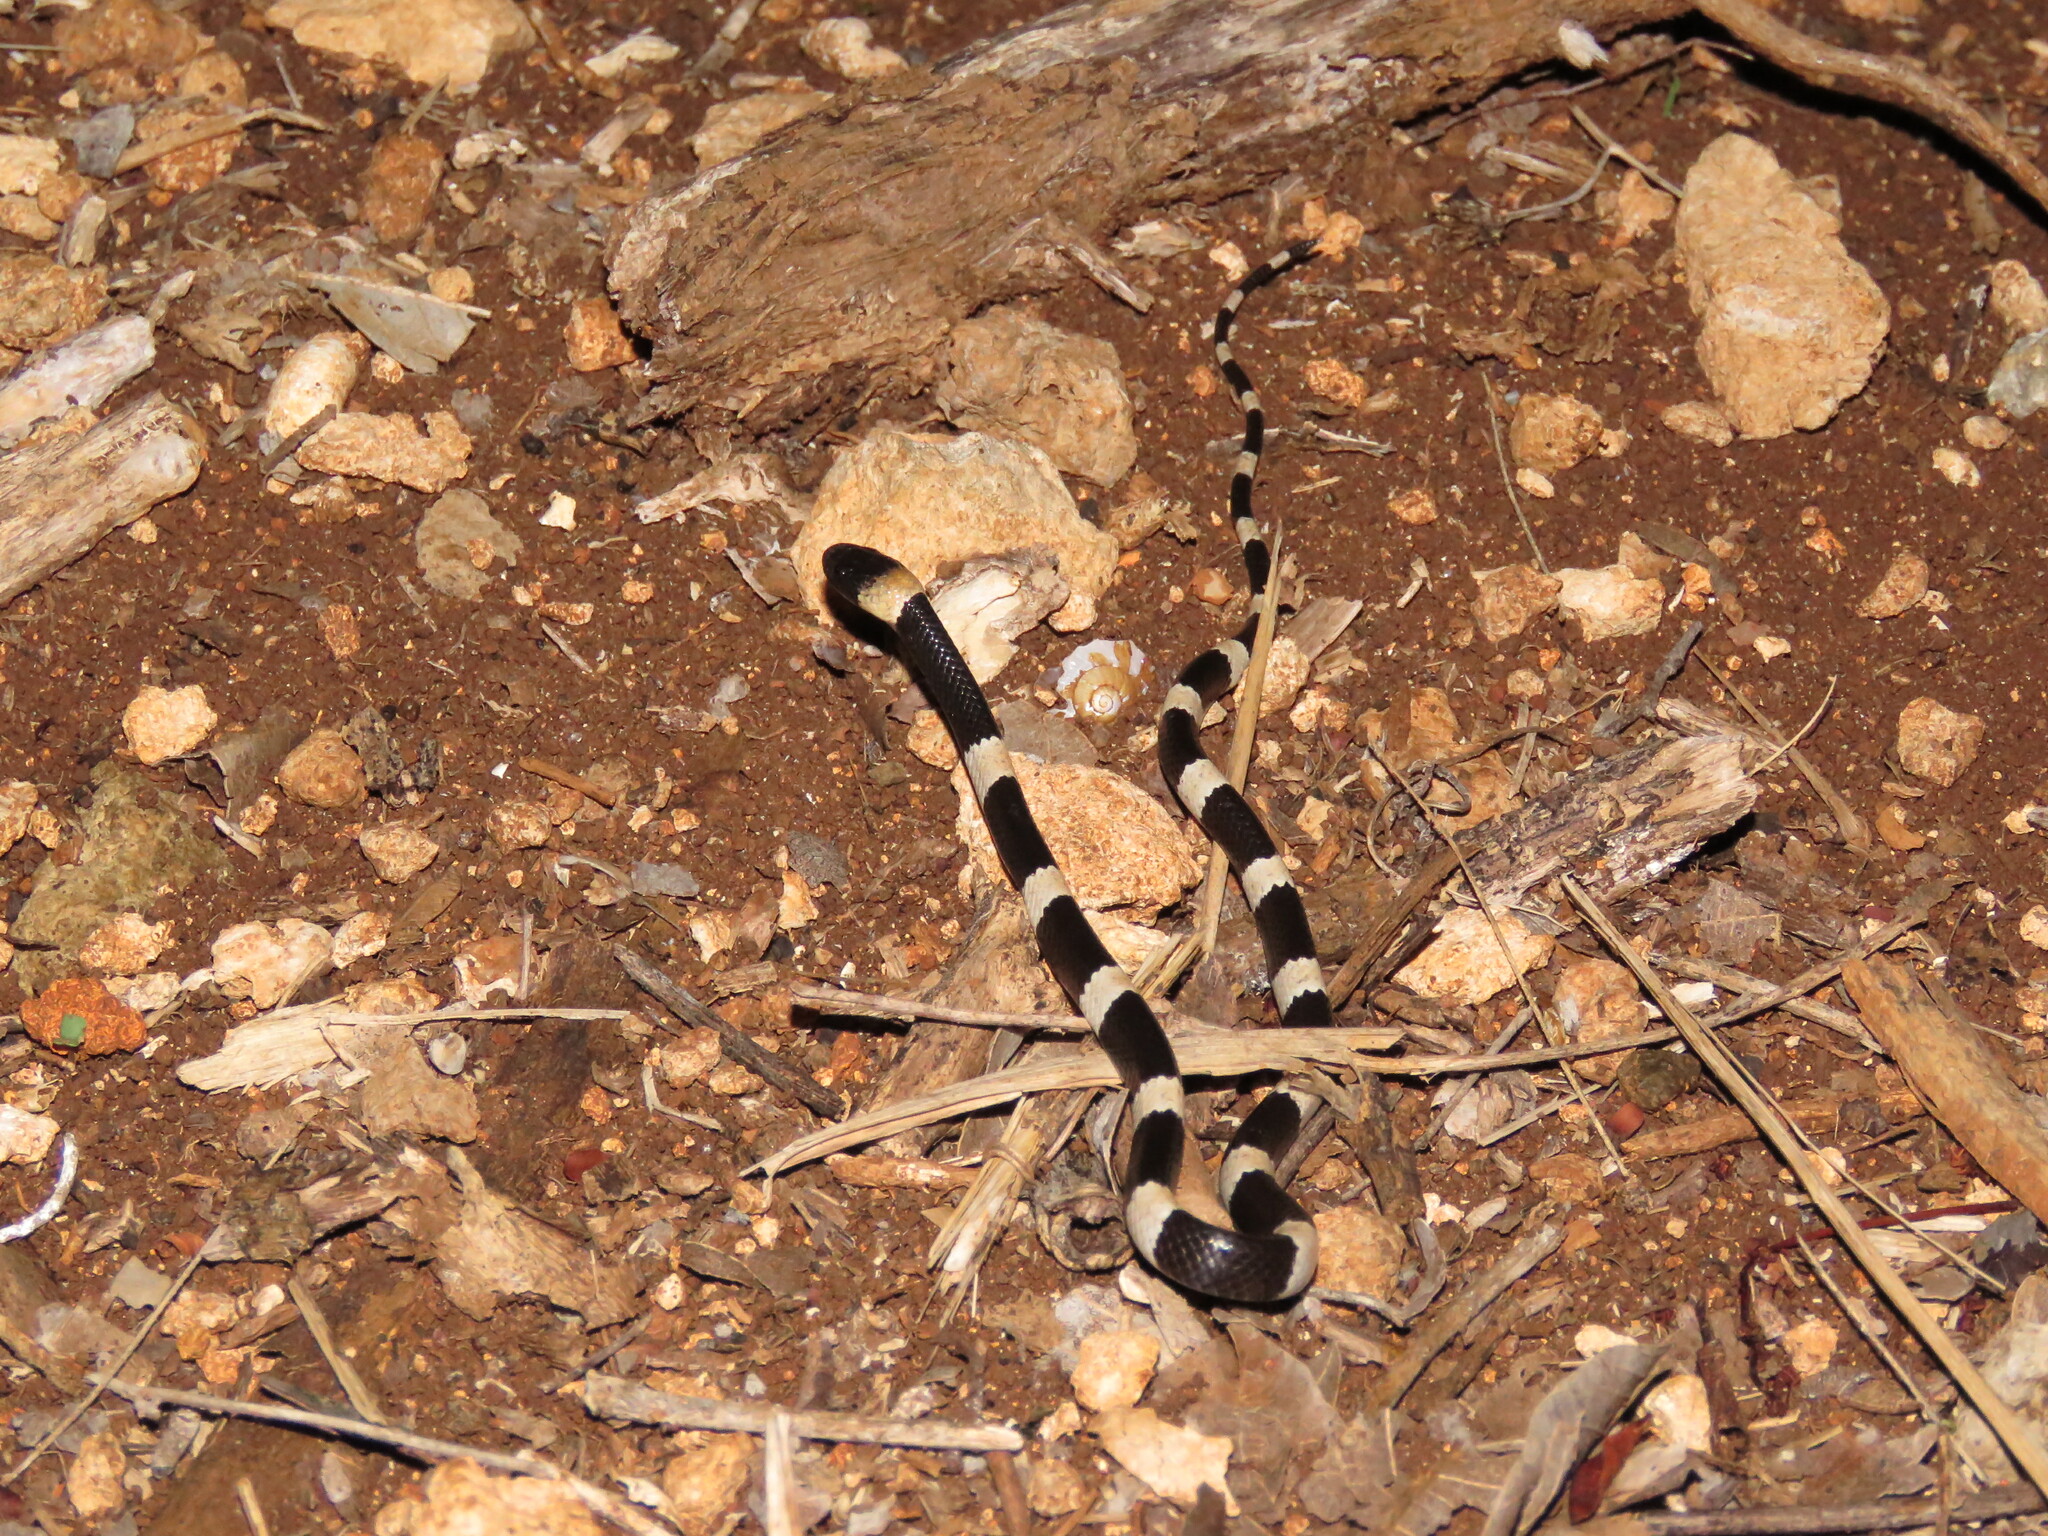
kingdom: Animalia
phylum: Chordata
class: Squamata
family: Colubridae
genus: Dipsas
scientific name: Dipsas brevifacies
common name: Snail-eating thirst snake
